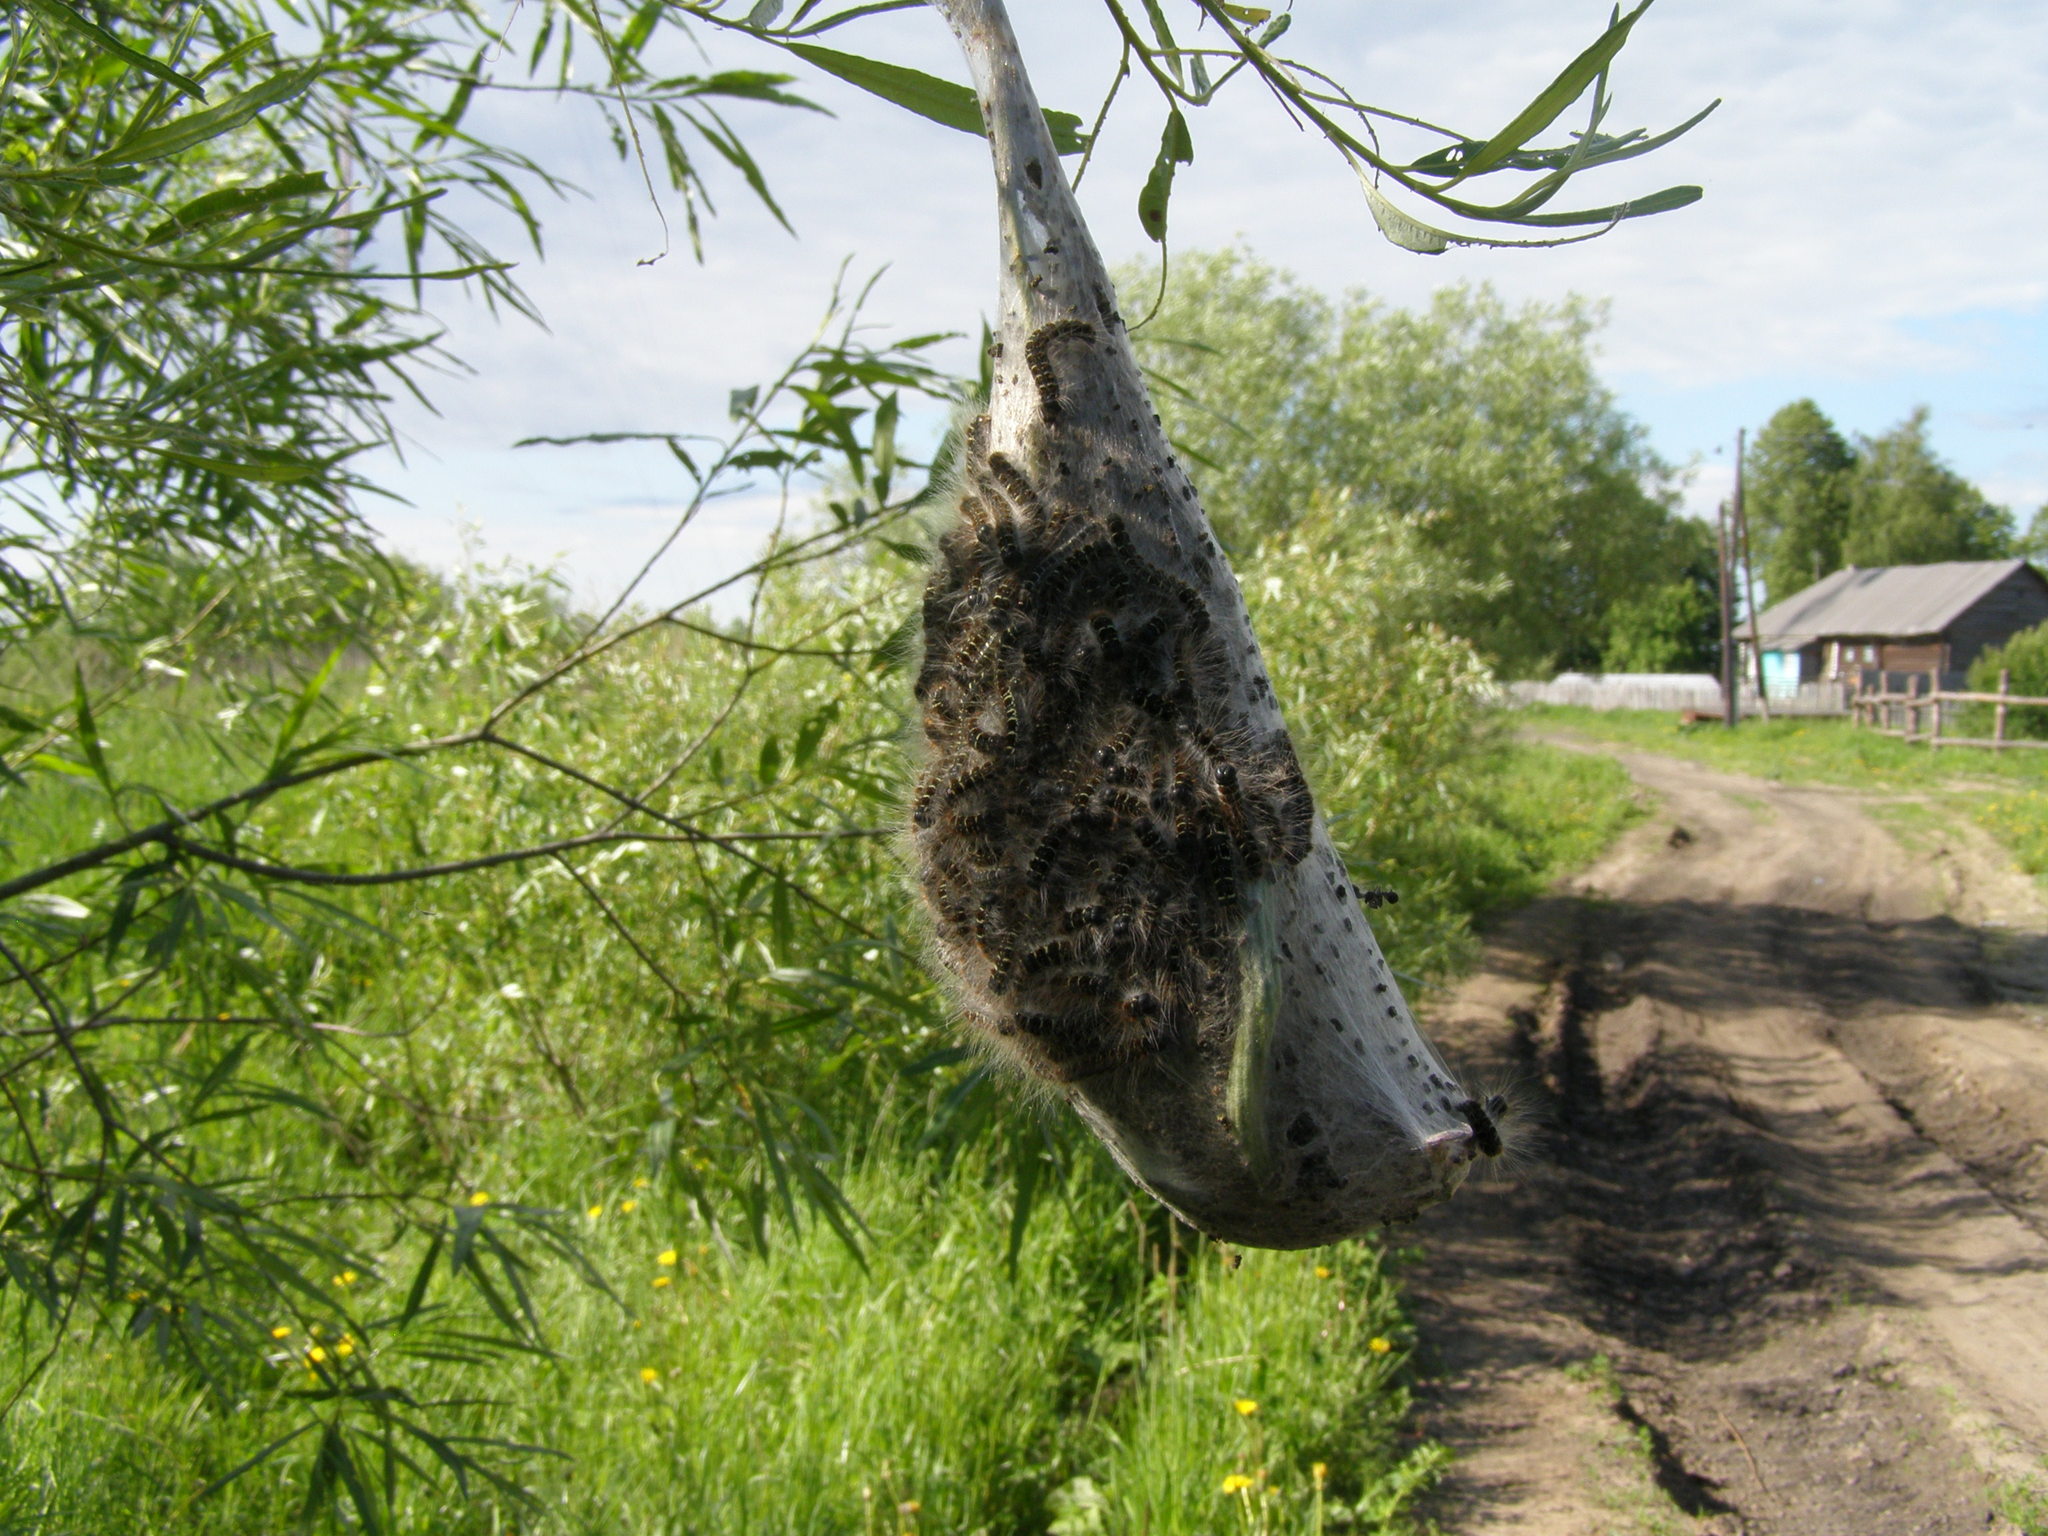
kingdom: Animalia
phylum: Arthropoda
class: Insecta
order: Lepidoptera
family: Lasiocampidae
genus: Eriogaster
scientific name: Eriogaster lanestris
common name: Small eggar
